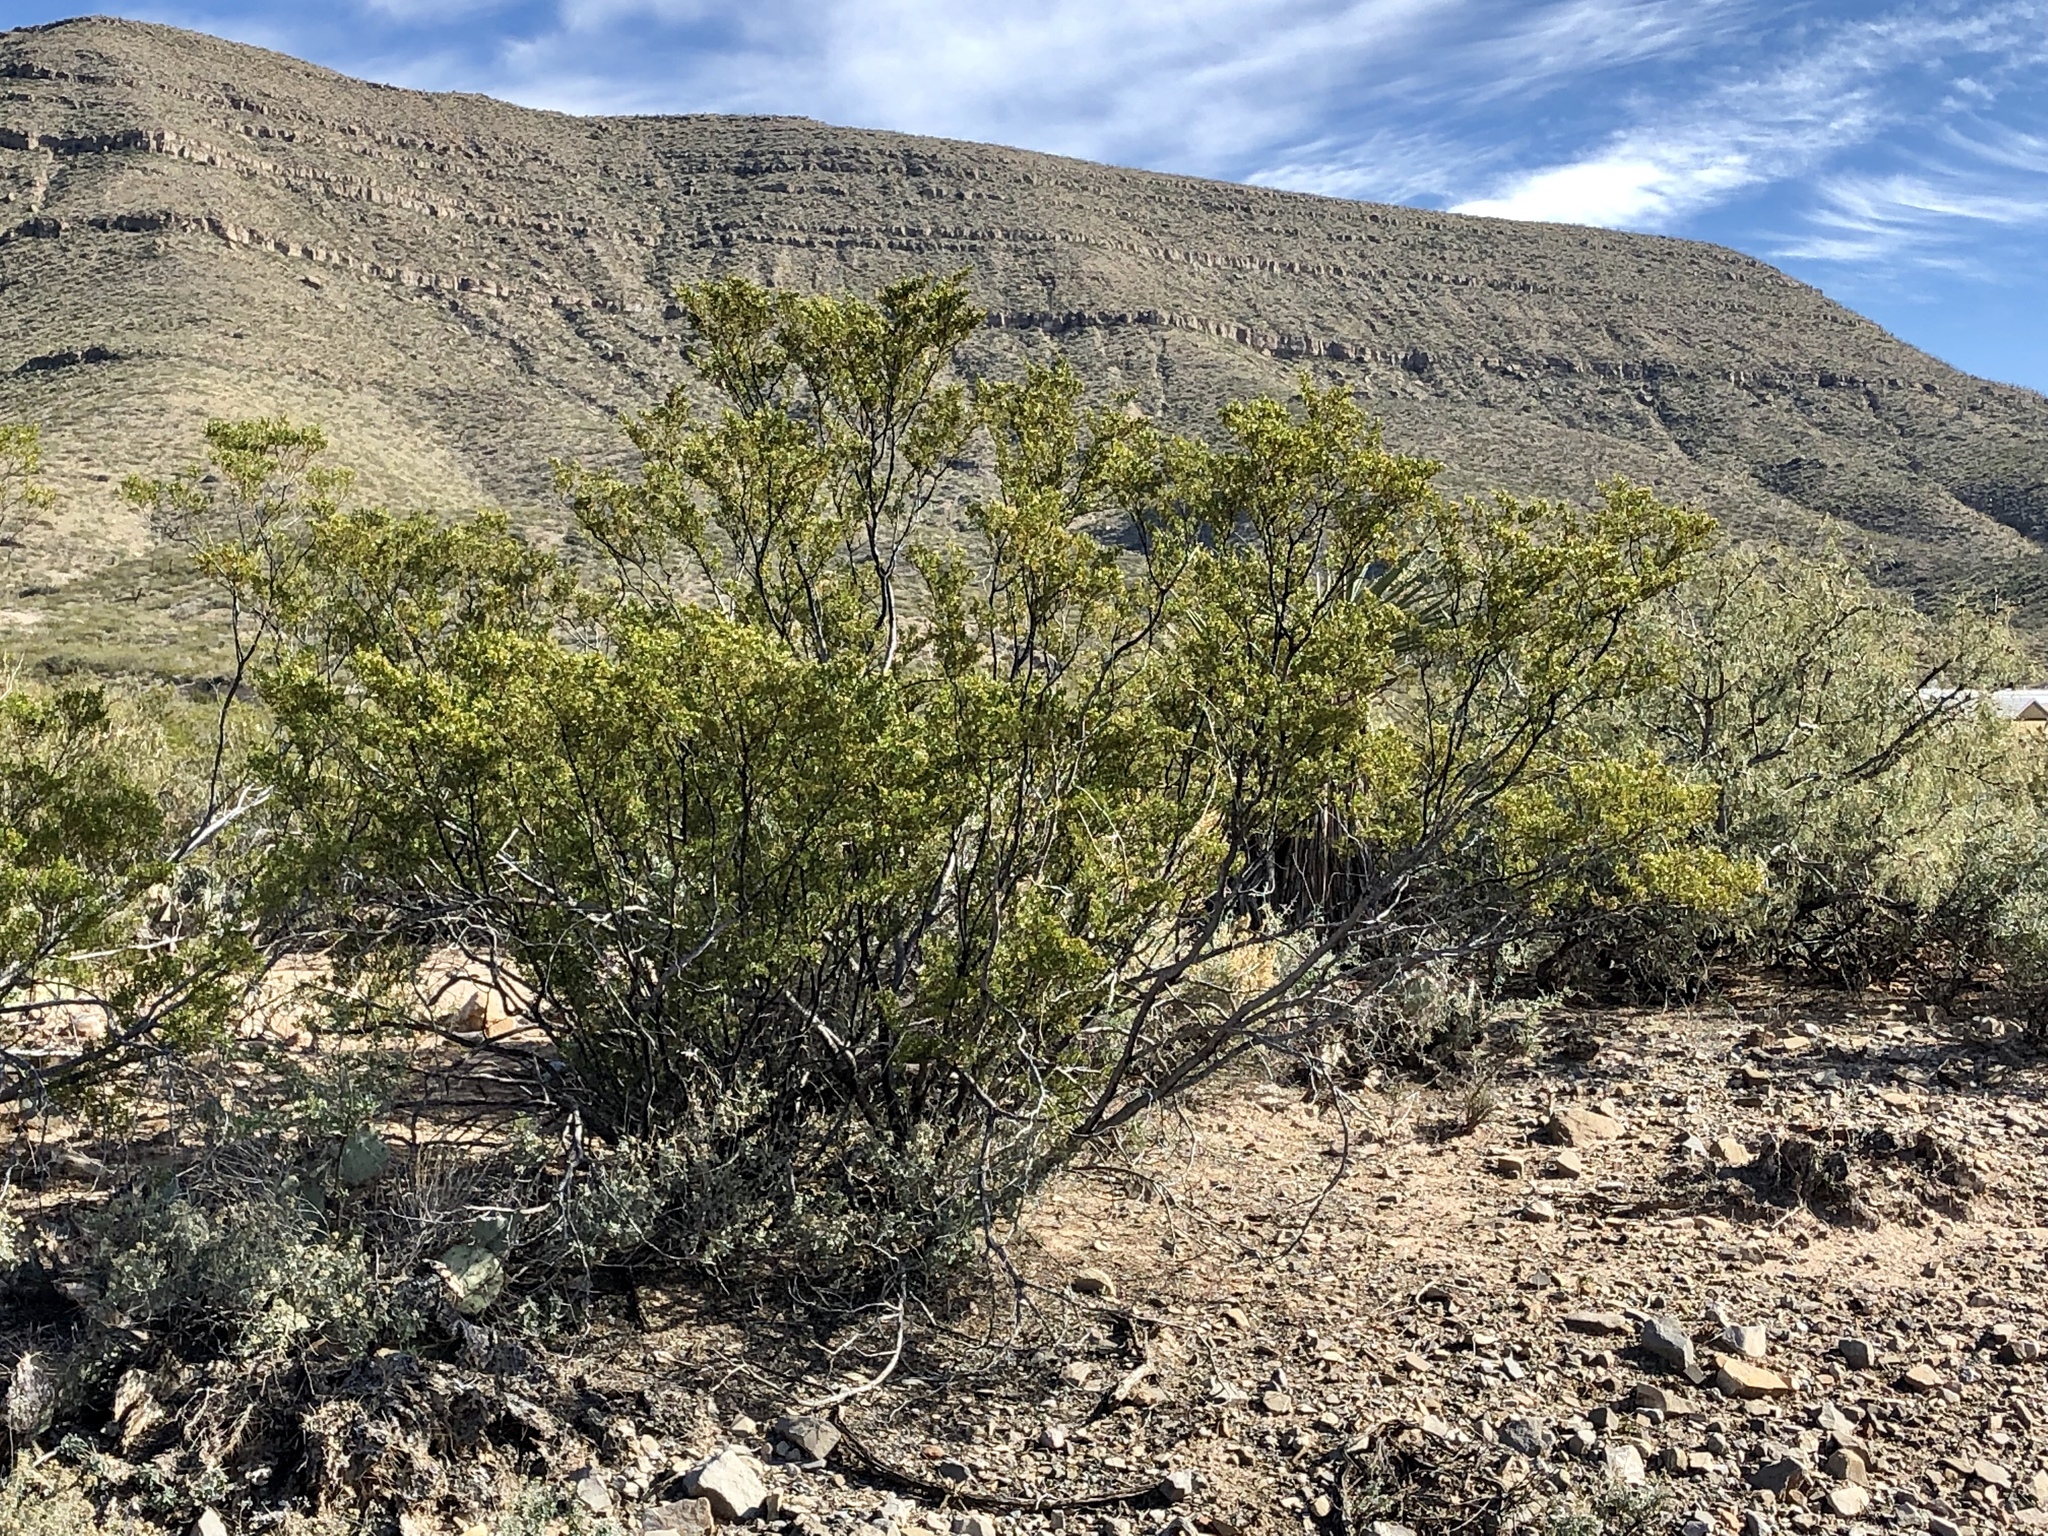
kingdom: Plantae
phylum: Tracheophyta
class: Magnoliopsida
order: Zygophyllales
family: Zygophyllaceae
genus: Larrea
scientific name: Larrea tridentata
